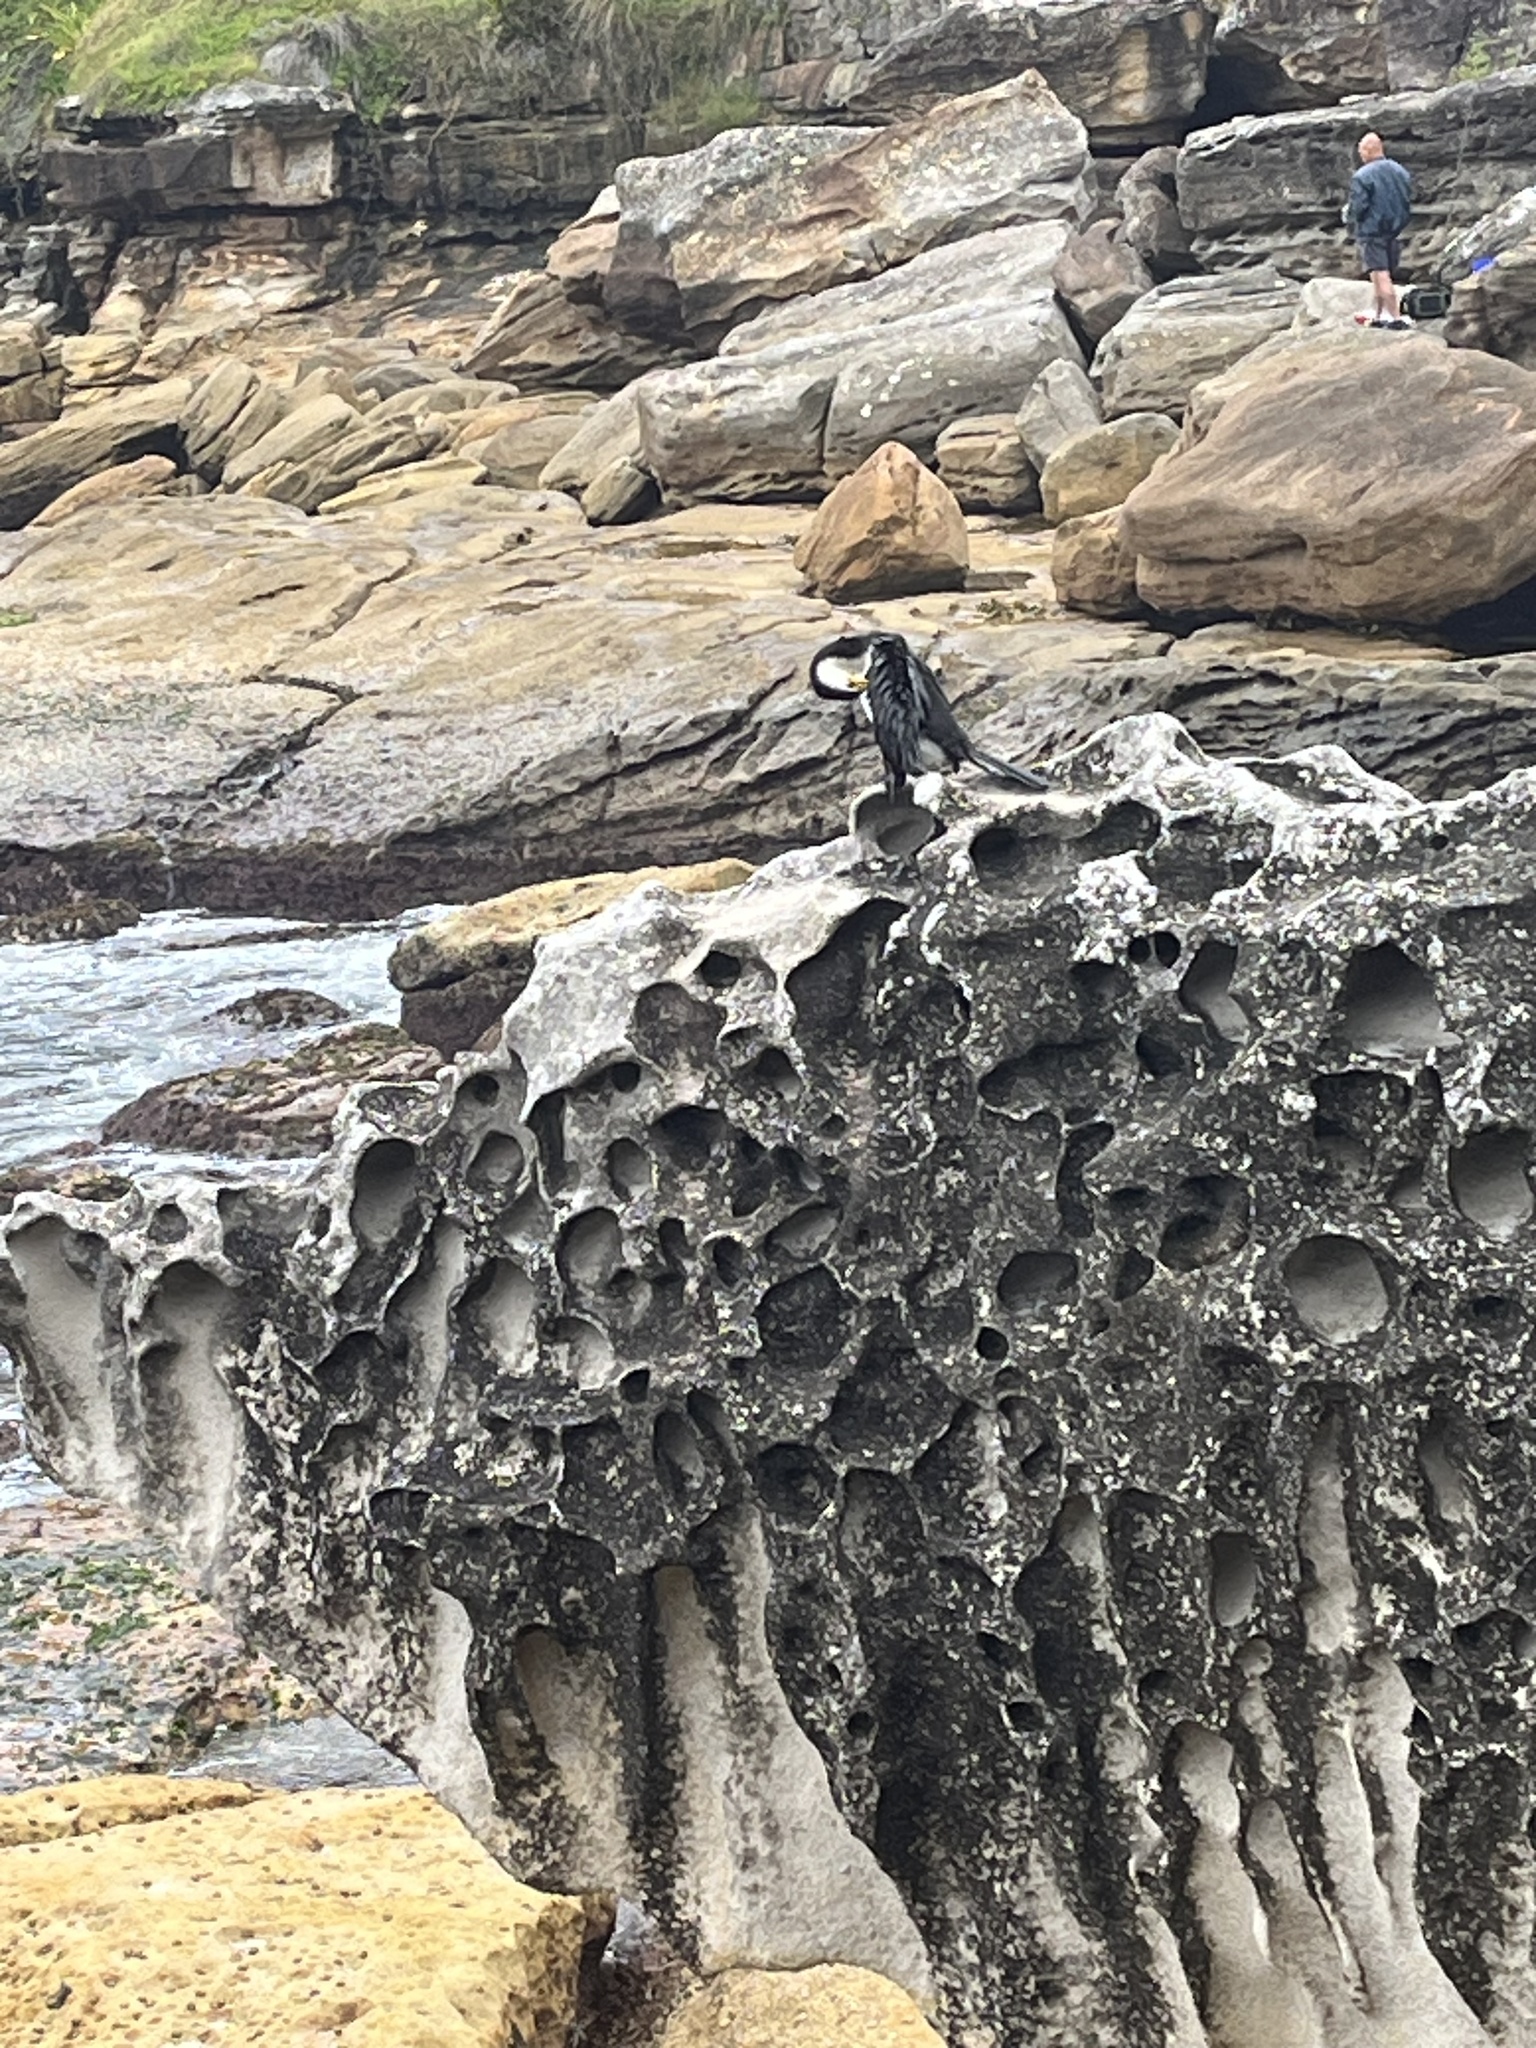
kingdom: Animalia
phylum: Chordata
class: Aves
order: Suliformes
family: Phalacrocoracidae
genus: Microcarbo
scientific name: Microcarbo melanoleucos
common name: Little pied cormorant
